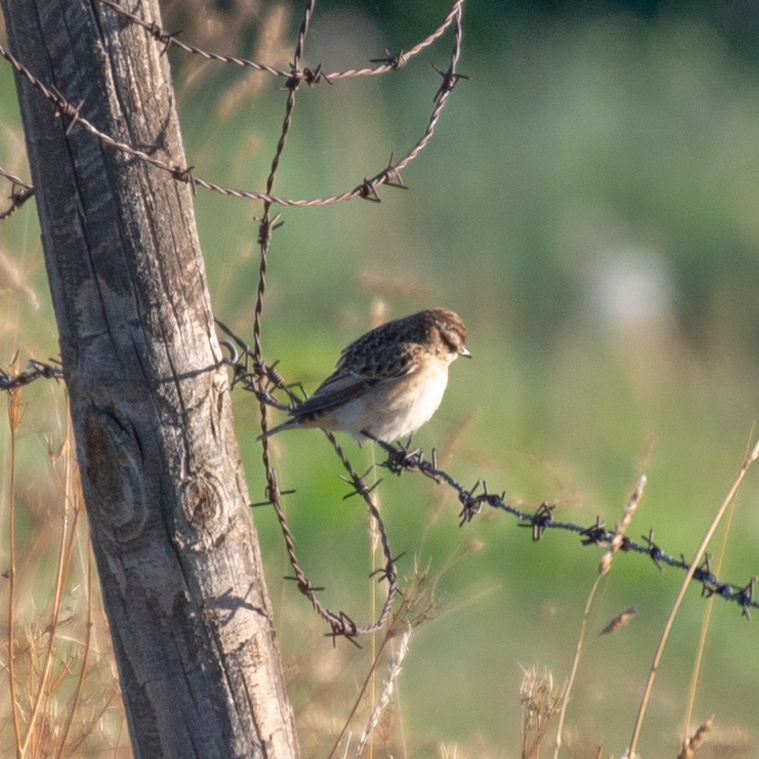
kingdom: Animalia
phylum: Chordata
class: Aves
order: Passeriformes
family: Muscicapidae
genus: Saxicola
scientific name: Saxicola rubetra
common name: Whinchat
